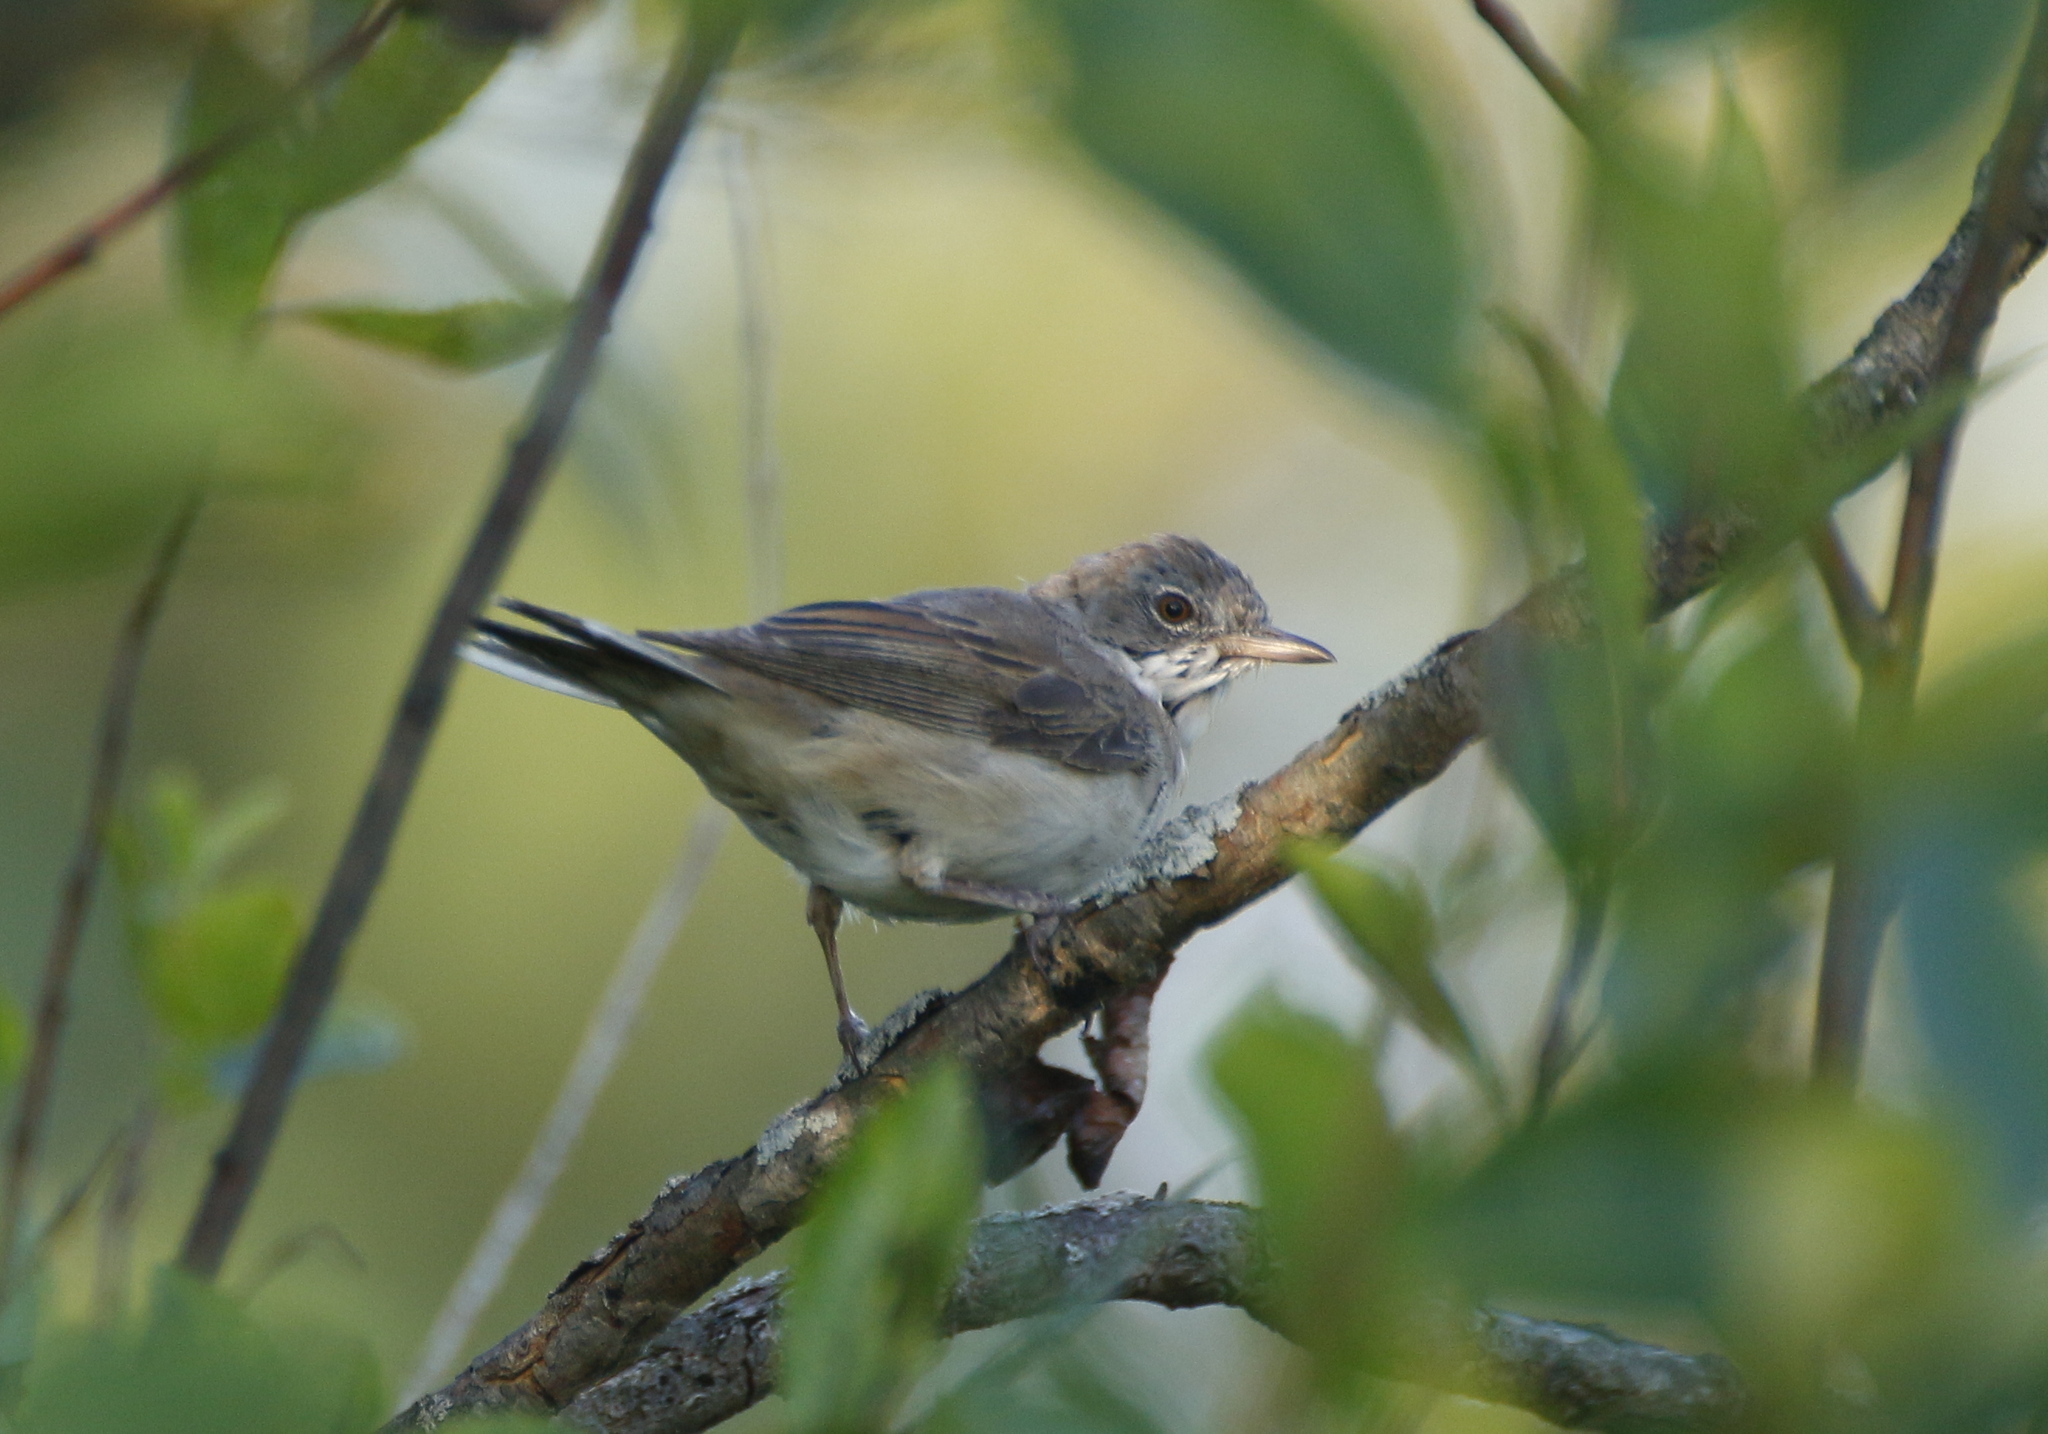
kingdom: Animalia
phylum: Chordata
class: Aves
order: Passeriformes
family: Sylviidae
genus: Sylvia
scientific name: Sylvia communis
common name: Common whitethroat
